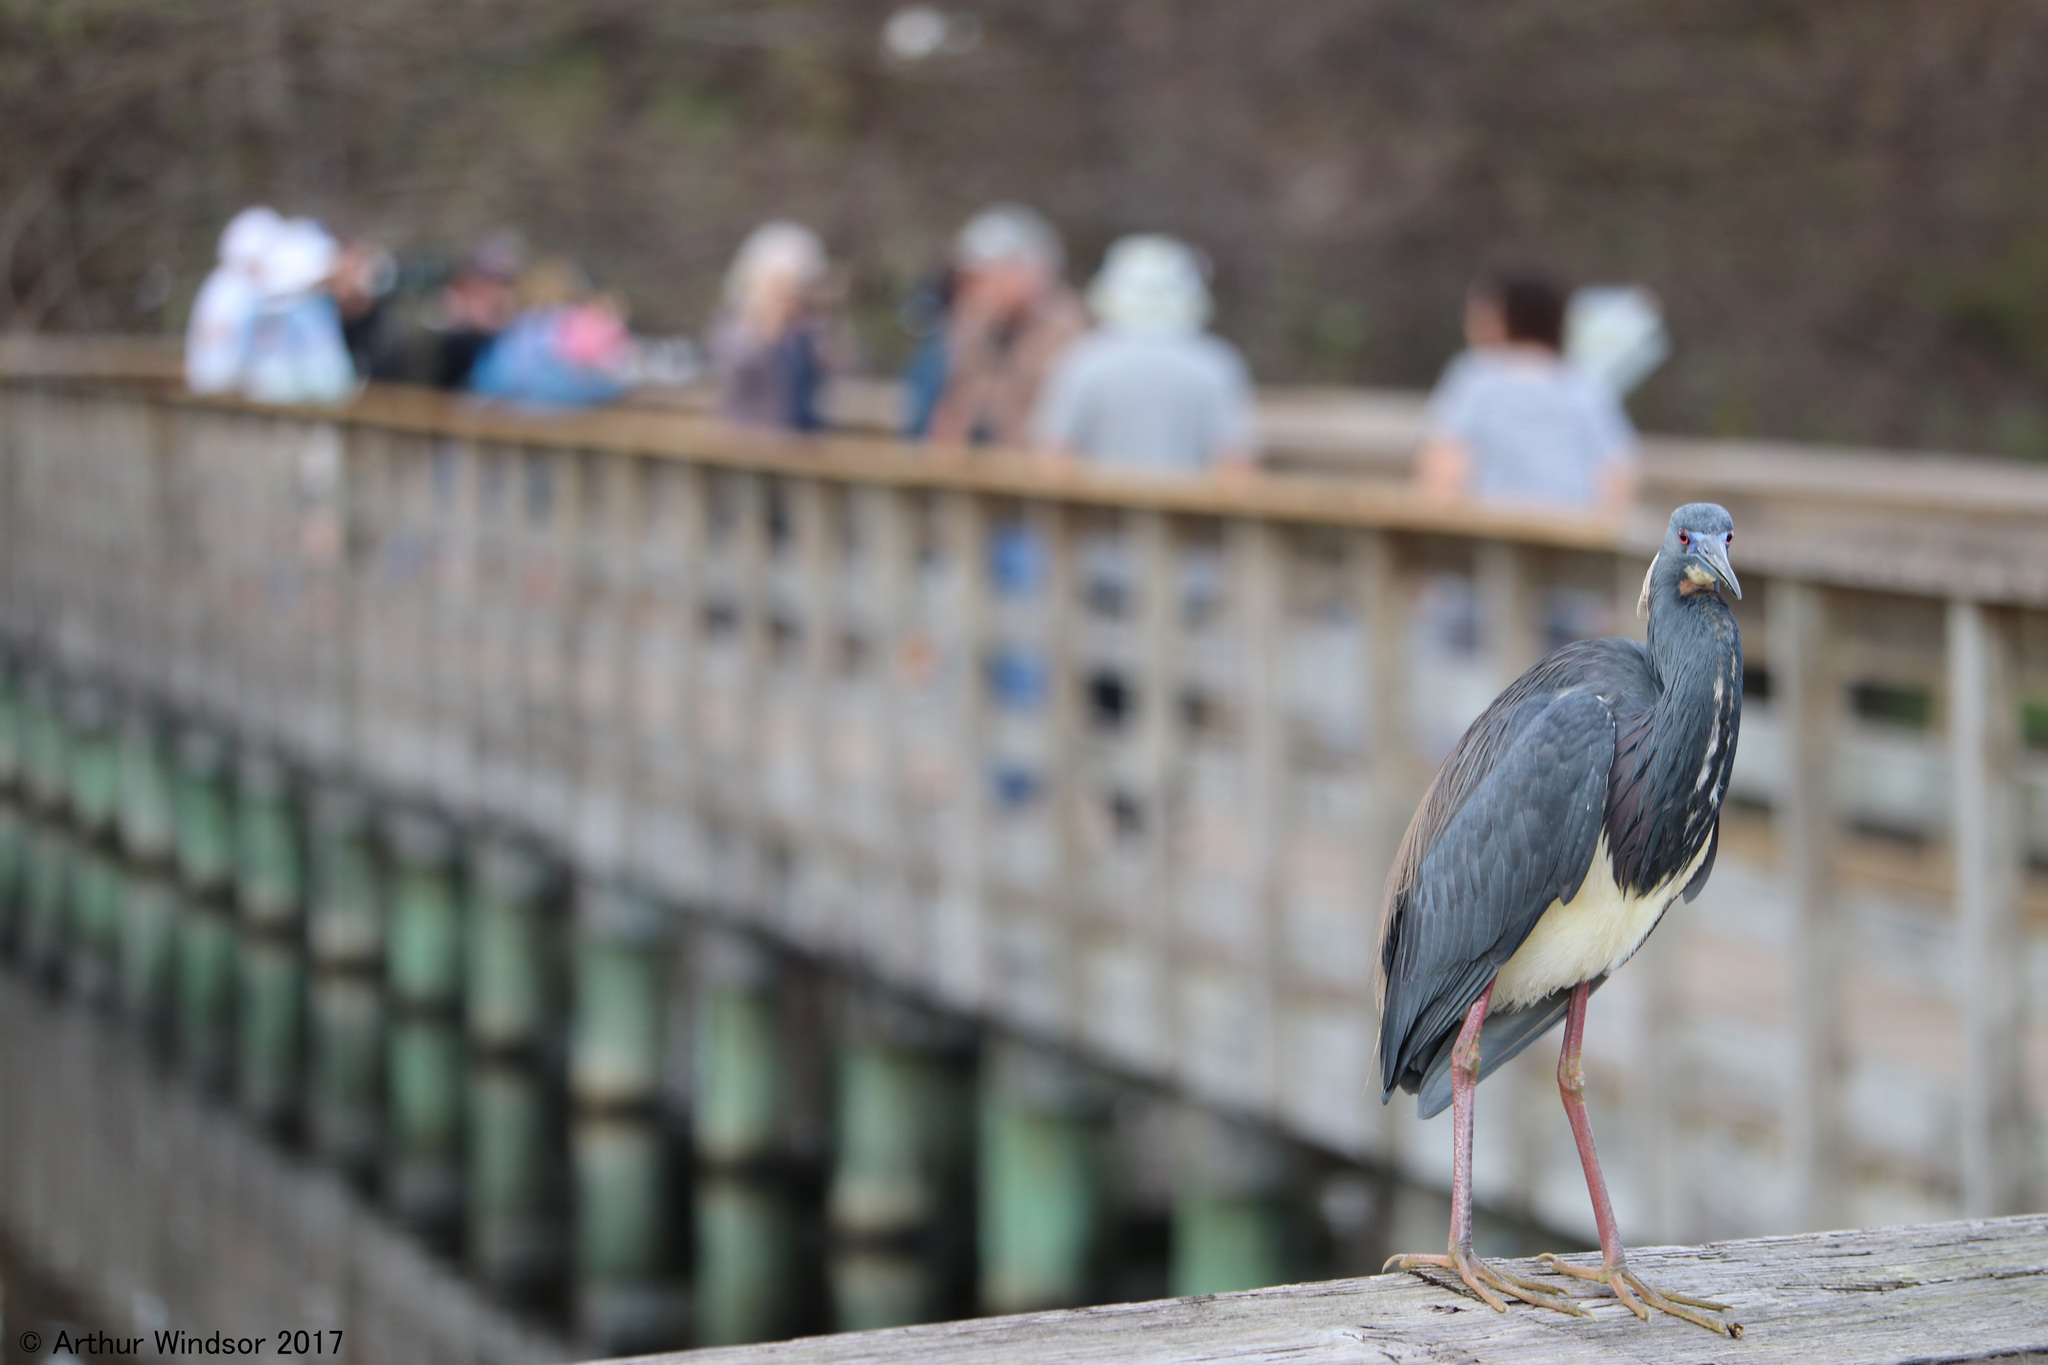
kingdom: Animalia
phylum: Chordata
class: Aves
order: Pelecaniformes
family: Ardeidae
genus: Egretta
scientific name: Egretta tricolor
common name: Tricolored heron
